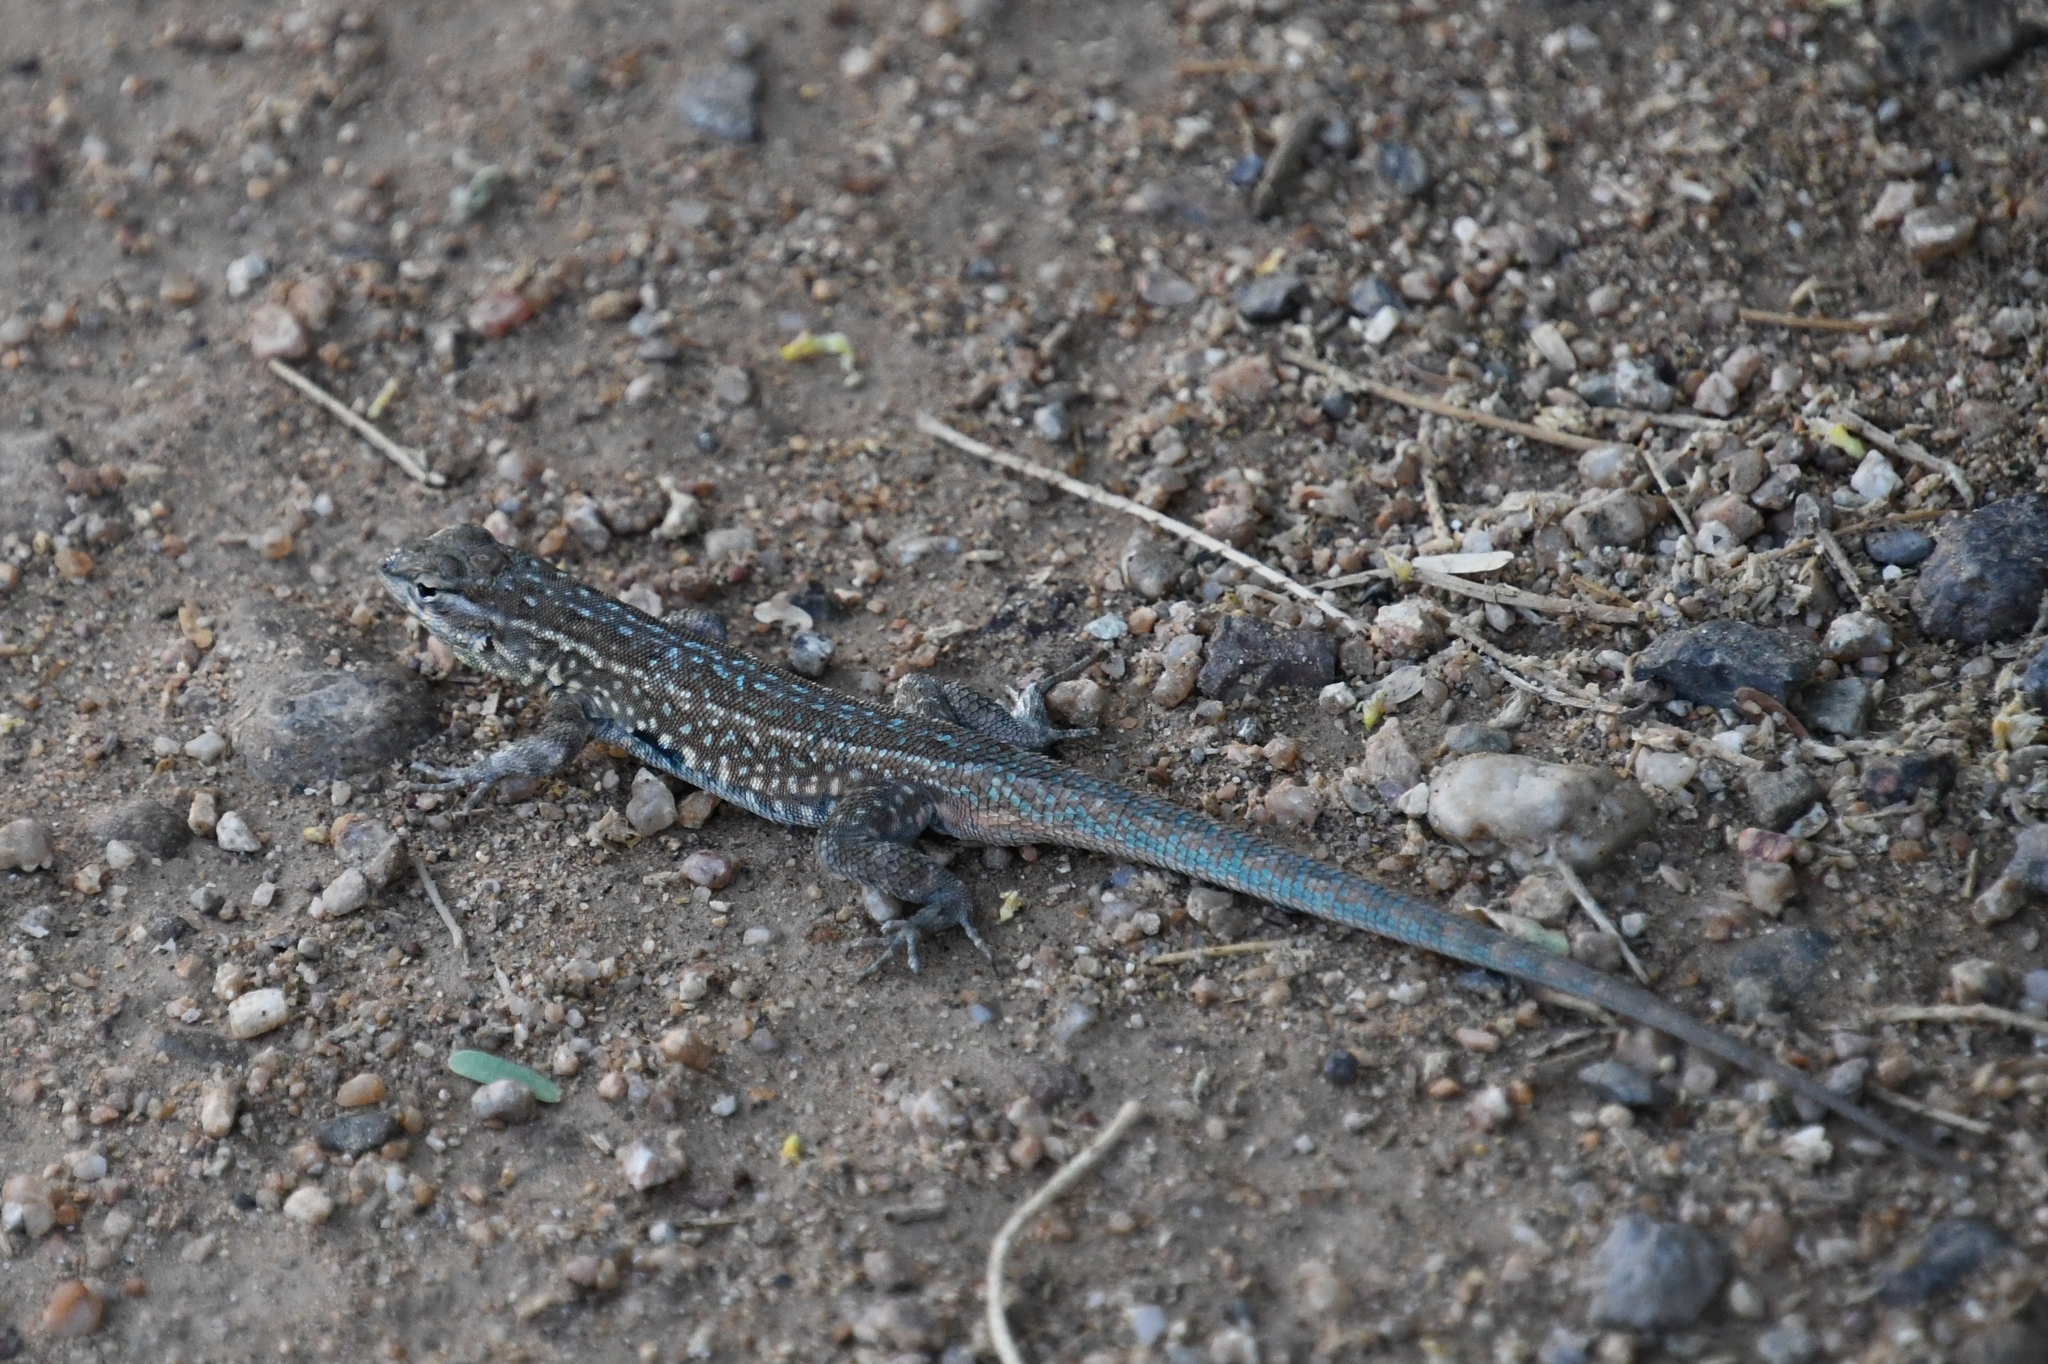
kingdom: Animalia
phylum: Chordata
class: Squamata
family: Phrynosomatidae
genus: Uta
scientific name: Uta stansburiana
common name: Side-blotched lizard
